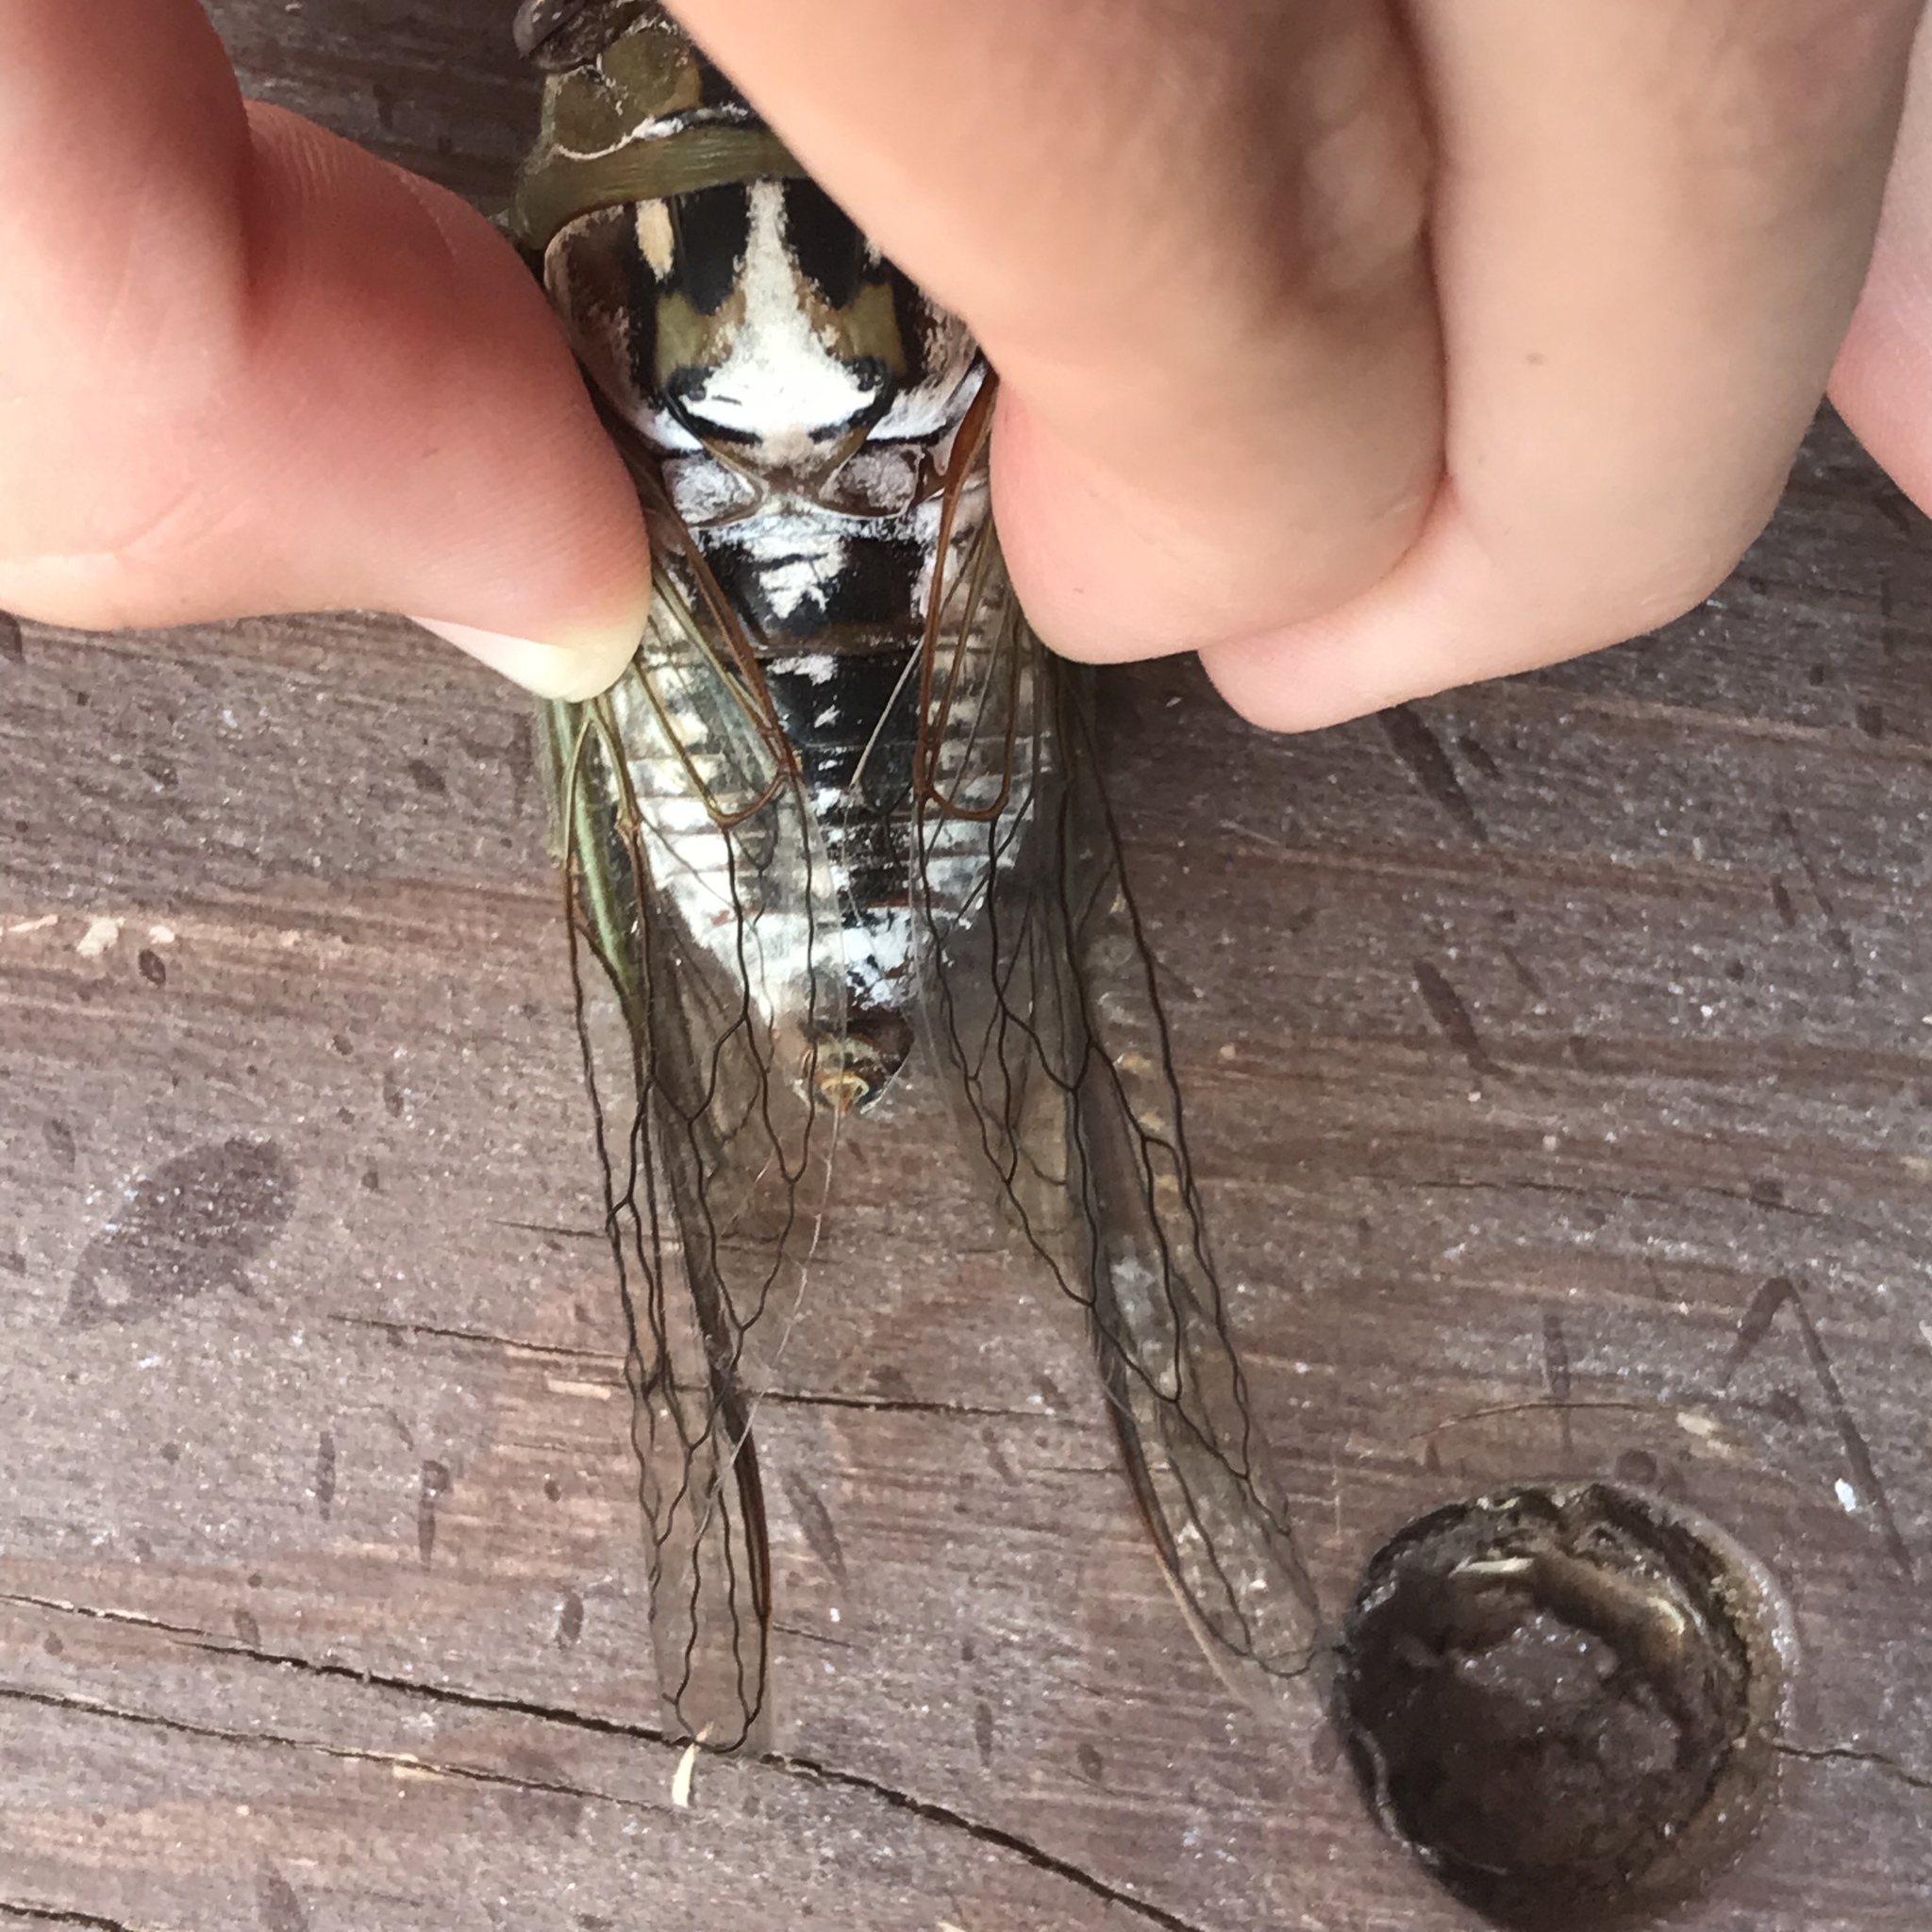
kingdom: Animalia
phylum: Arthropoda
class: Insecta
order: Hemiptera
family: Cicadidae
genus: Megatibicen
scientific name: Megatibicen dealbatus
